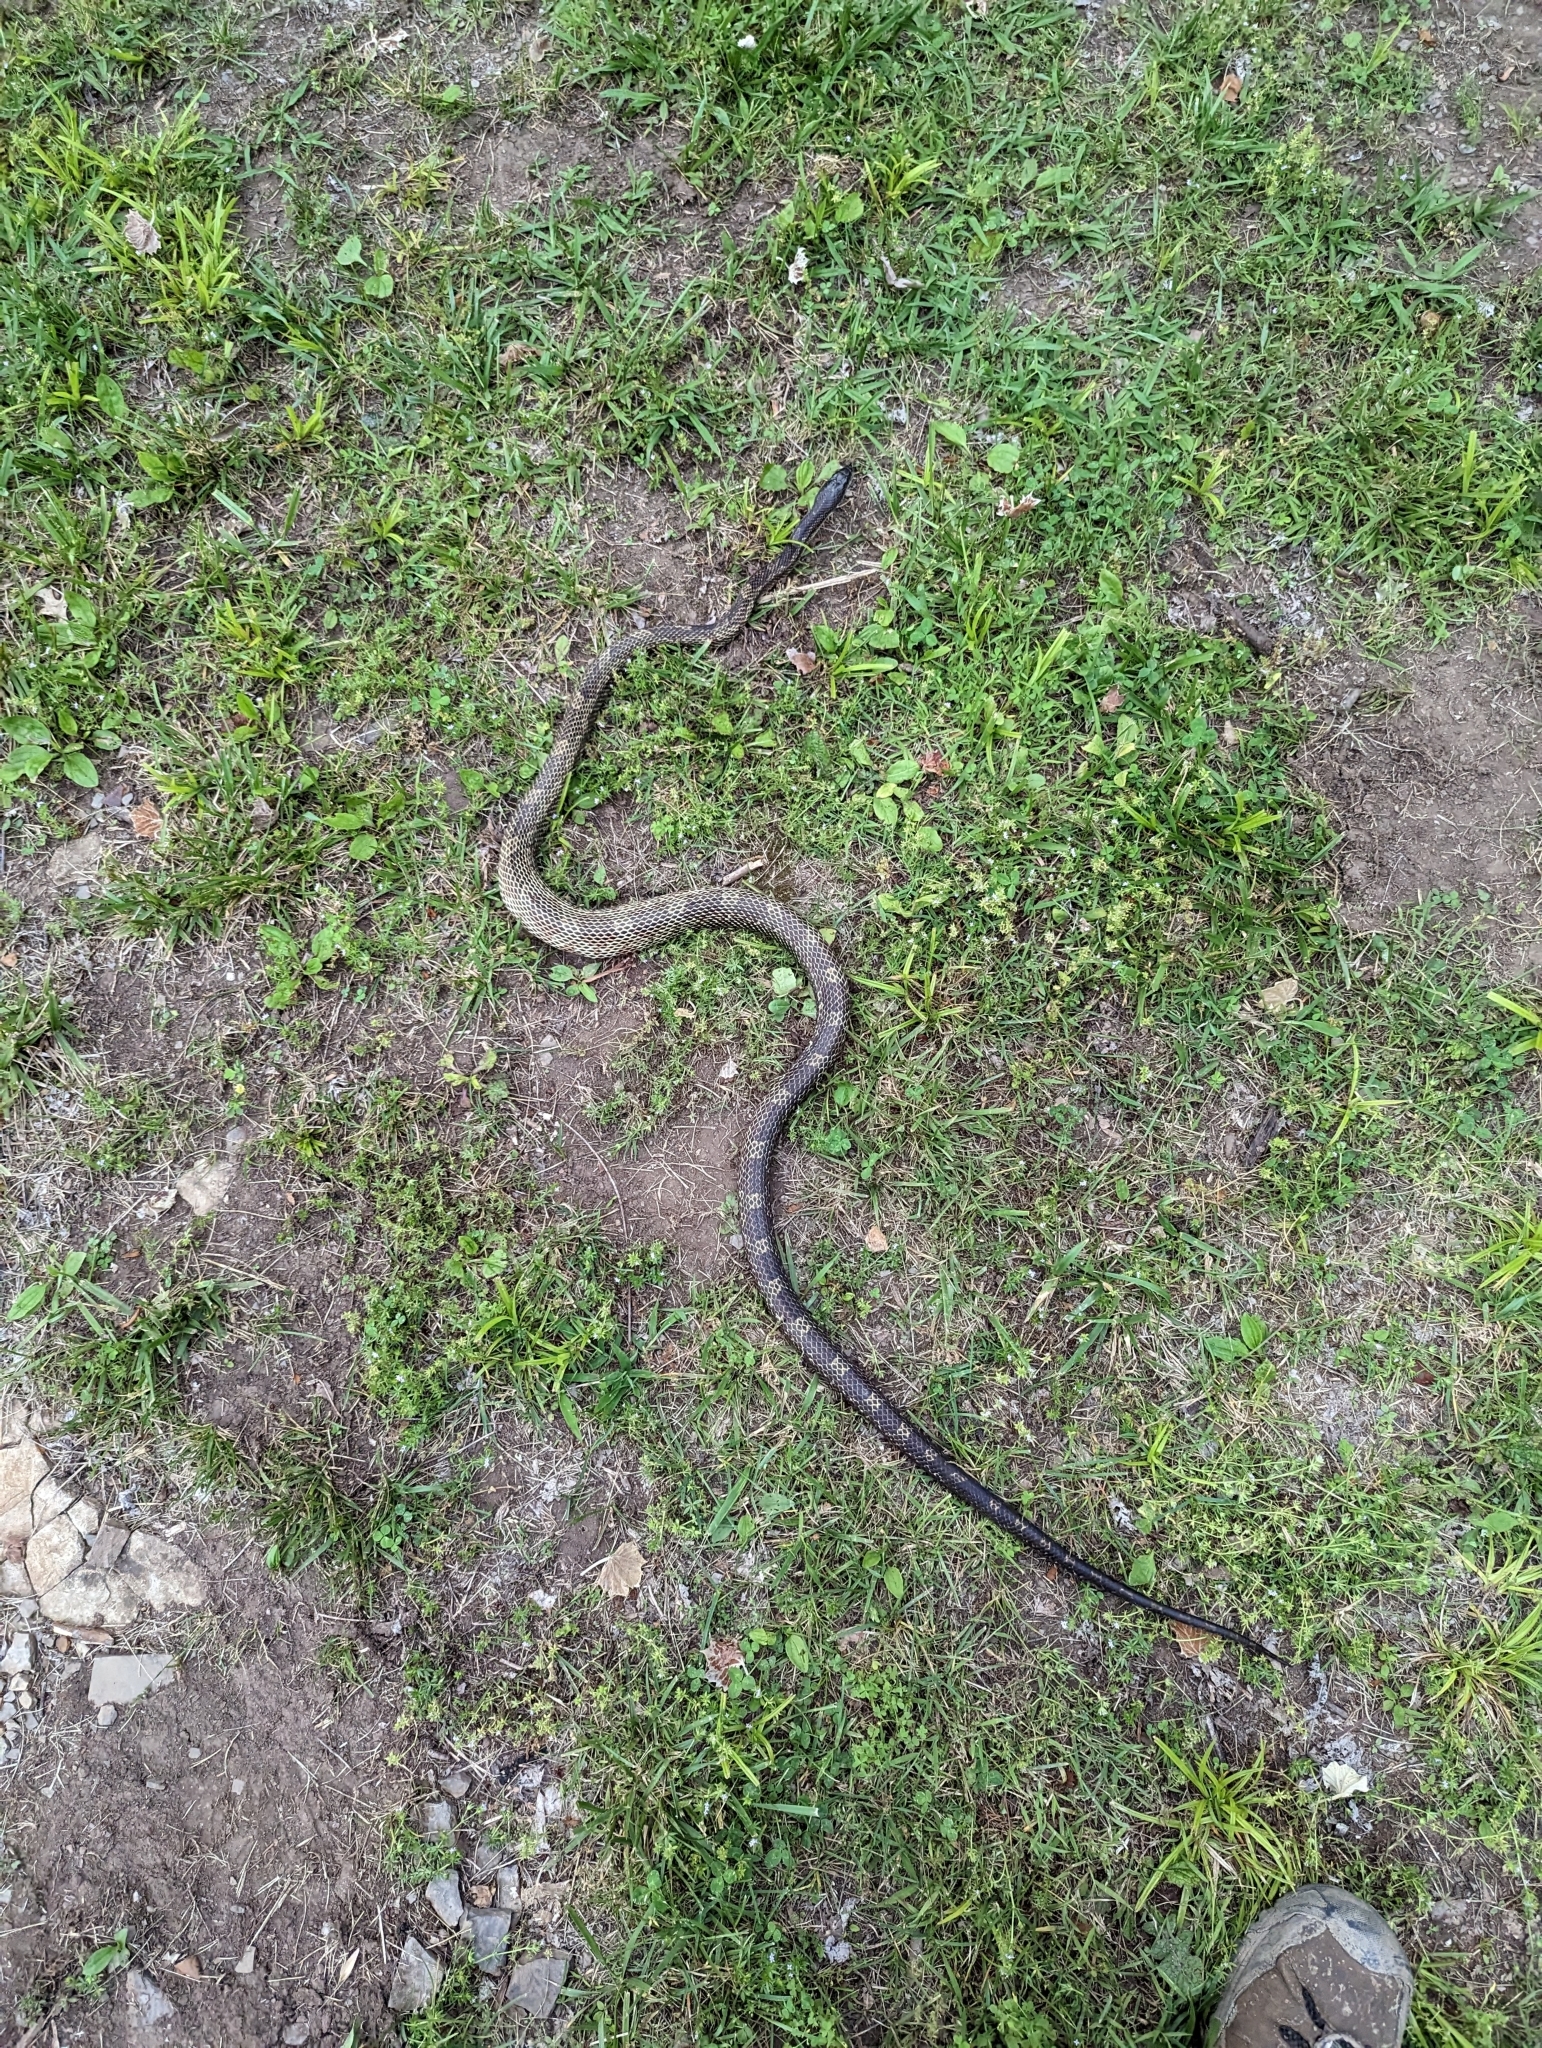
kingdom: Animalia
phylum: Chordata
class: Squamata
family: Colubridae
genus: Pantherophis
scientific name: Pantherophis spiloides
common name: Gray rat snake
